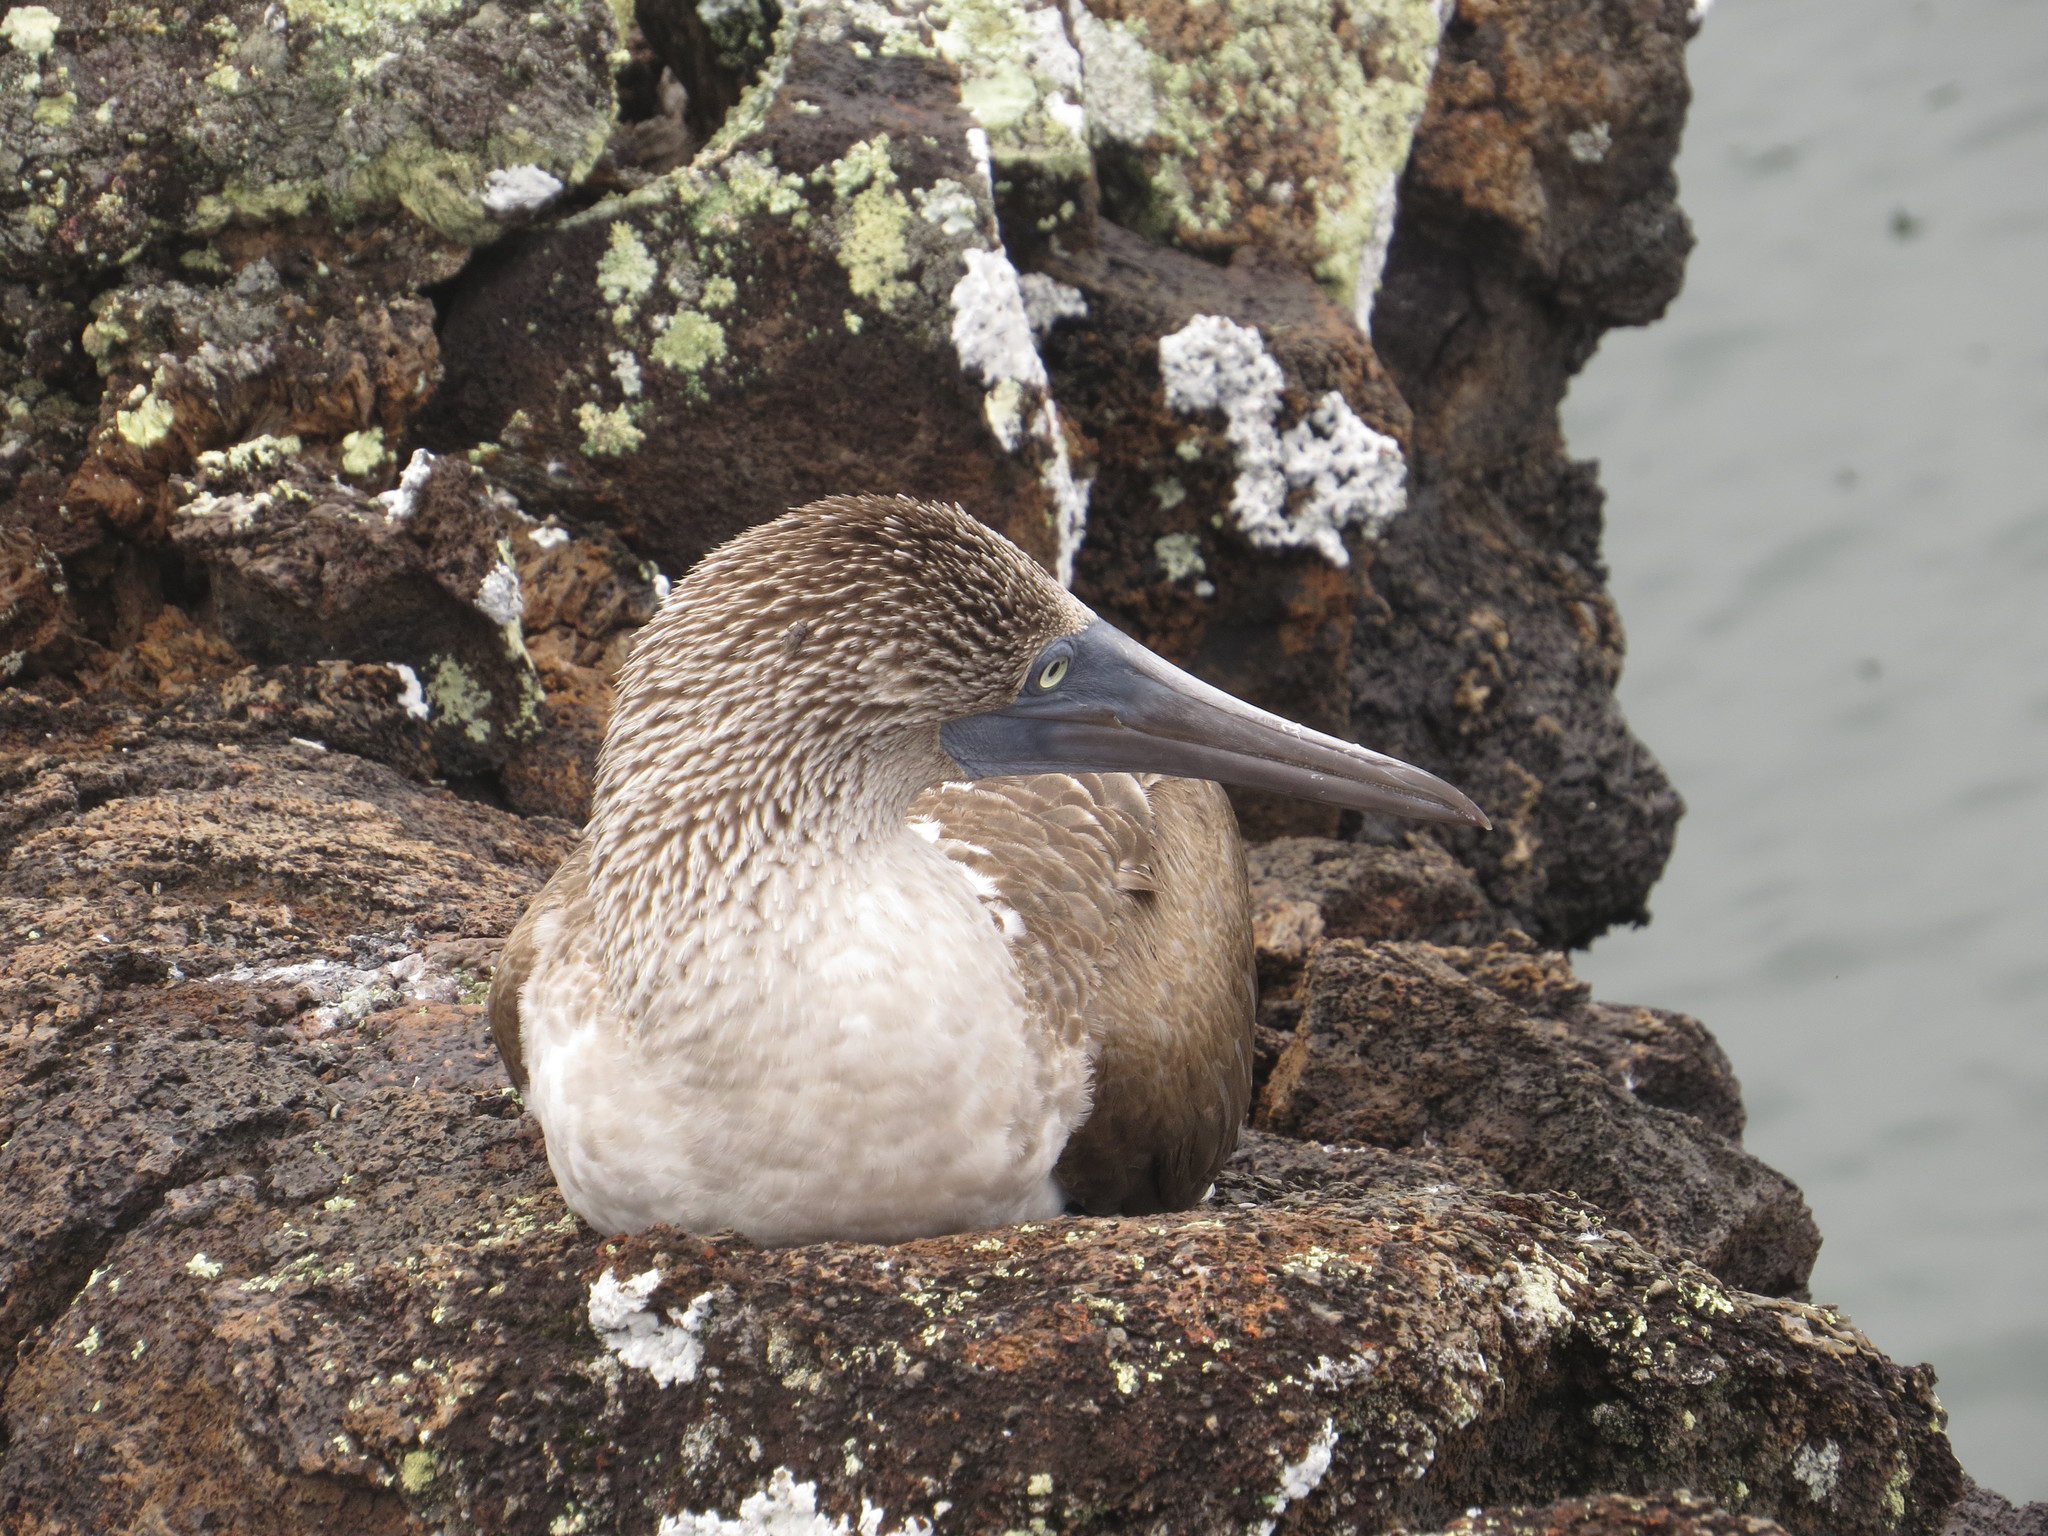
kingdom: Animalia
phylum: Chordata
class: Aves
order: Suliformes
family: Sulidae
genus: Sula
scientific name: Sula nebouxii
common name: Blue-footed booby
